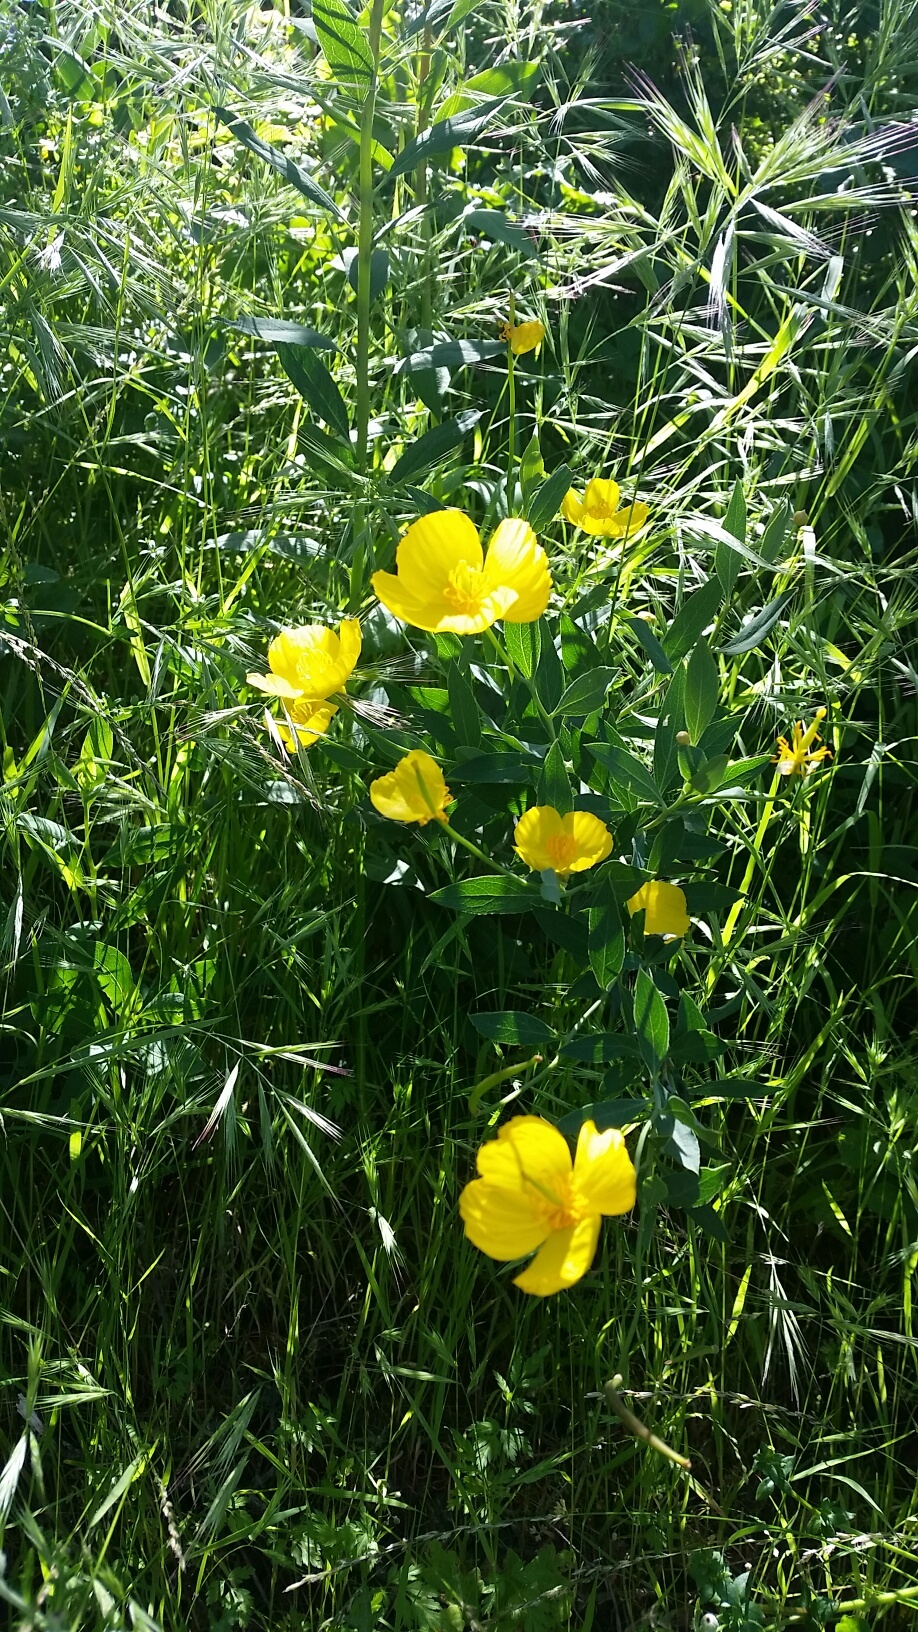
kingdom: Plantae
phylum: Tracheophyta
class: Magnoliopsida
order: Ranunculales
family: Papaveraceae
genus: Dendromecon
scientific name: Dendromecon rigida
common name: Tree poppy
